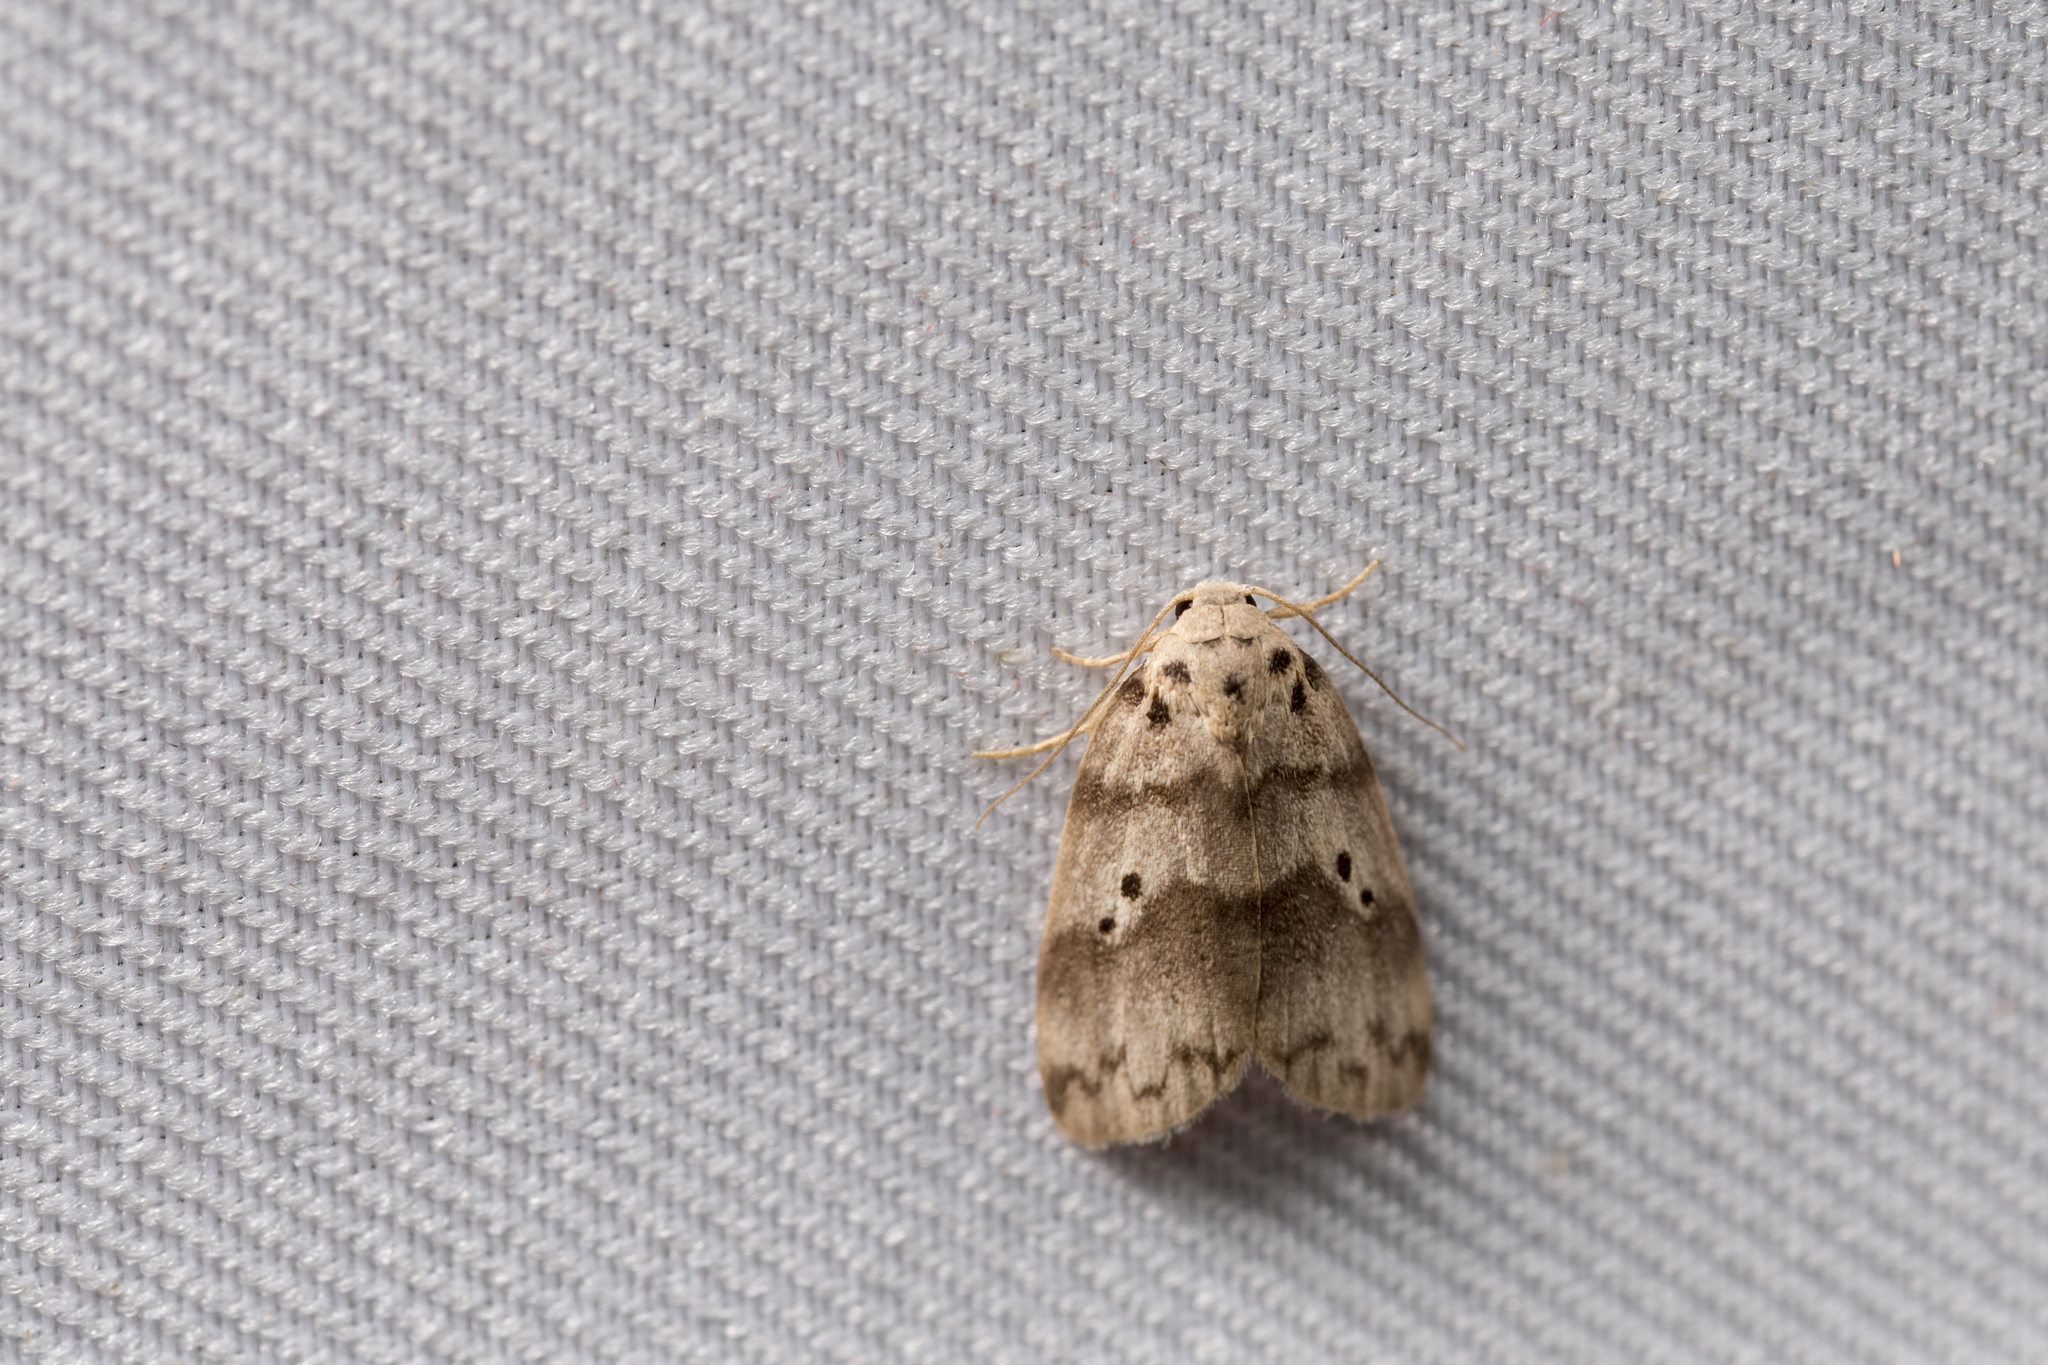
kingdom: Animalia
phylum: Arthropoda
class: Insecta
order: Lepidoptera
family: Erebidae
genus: Eugoa
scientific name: Eugoa cernyi
